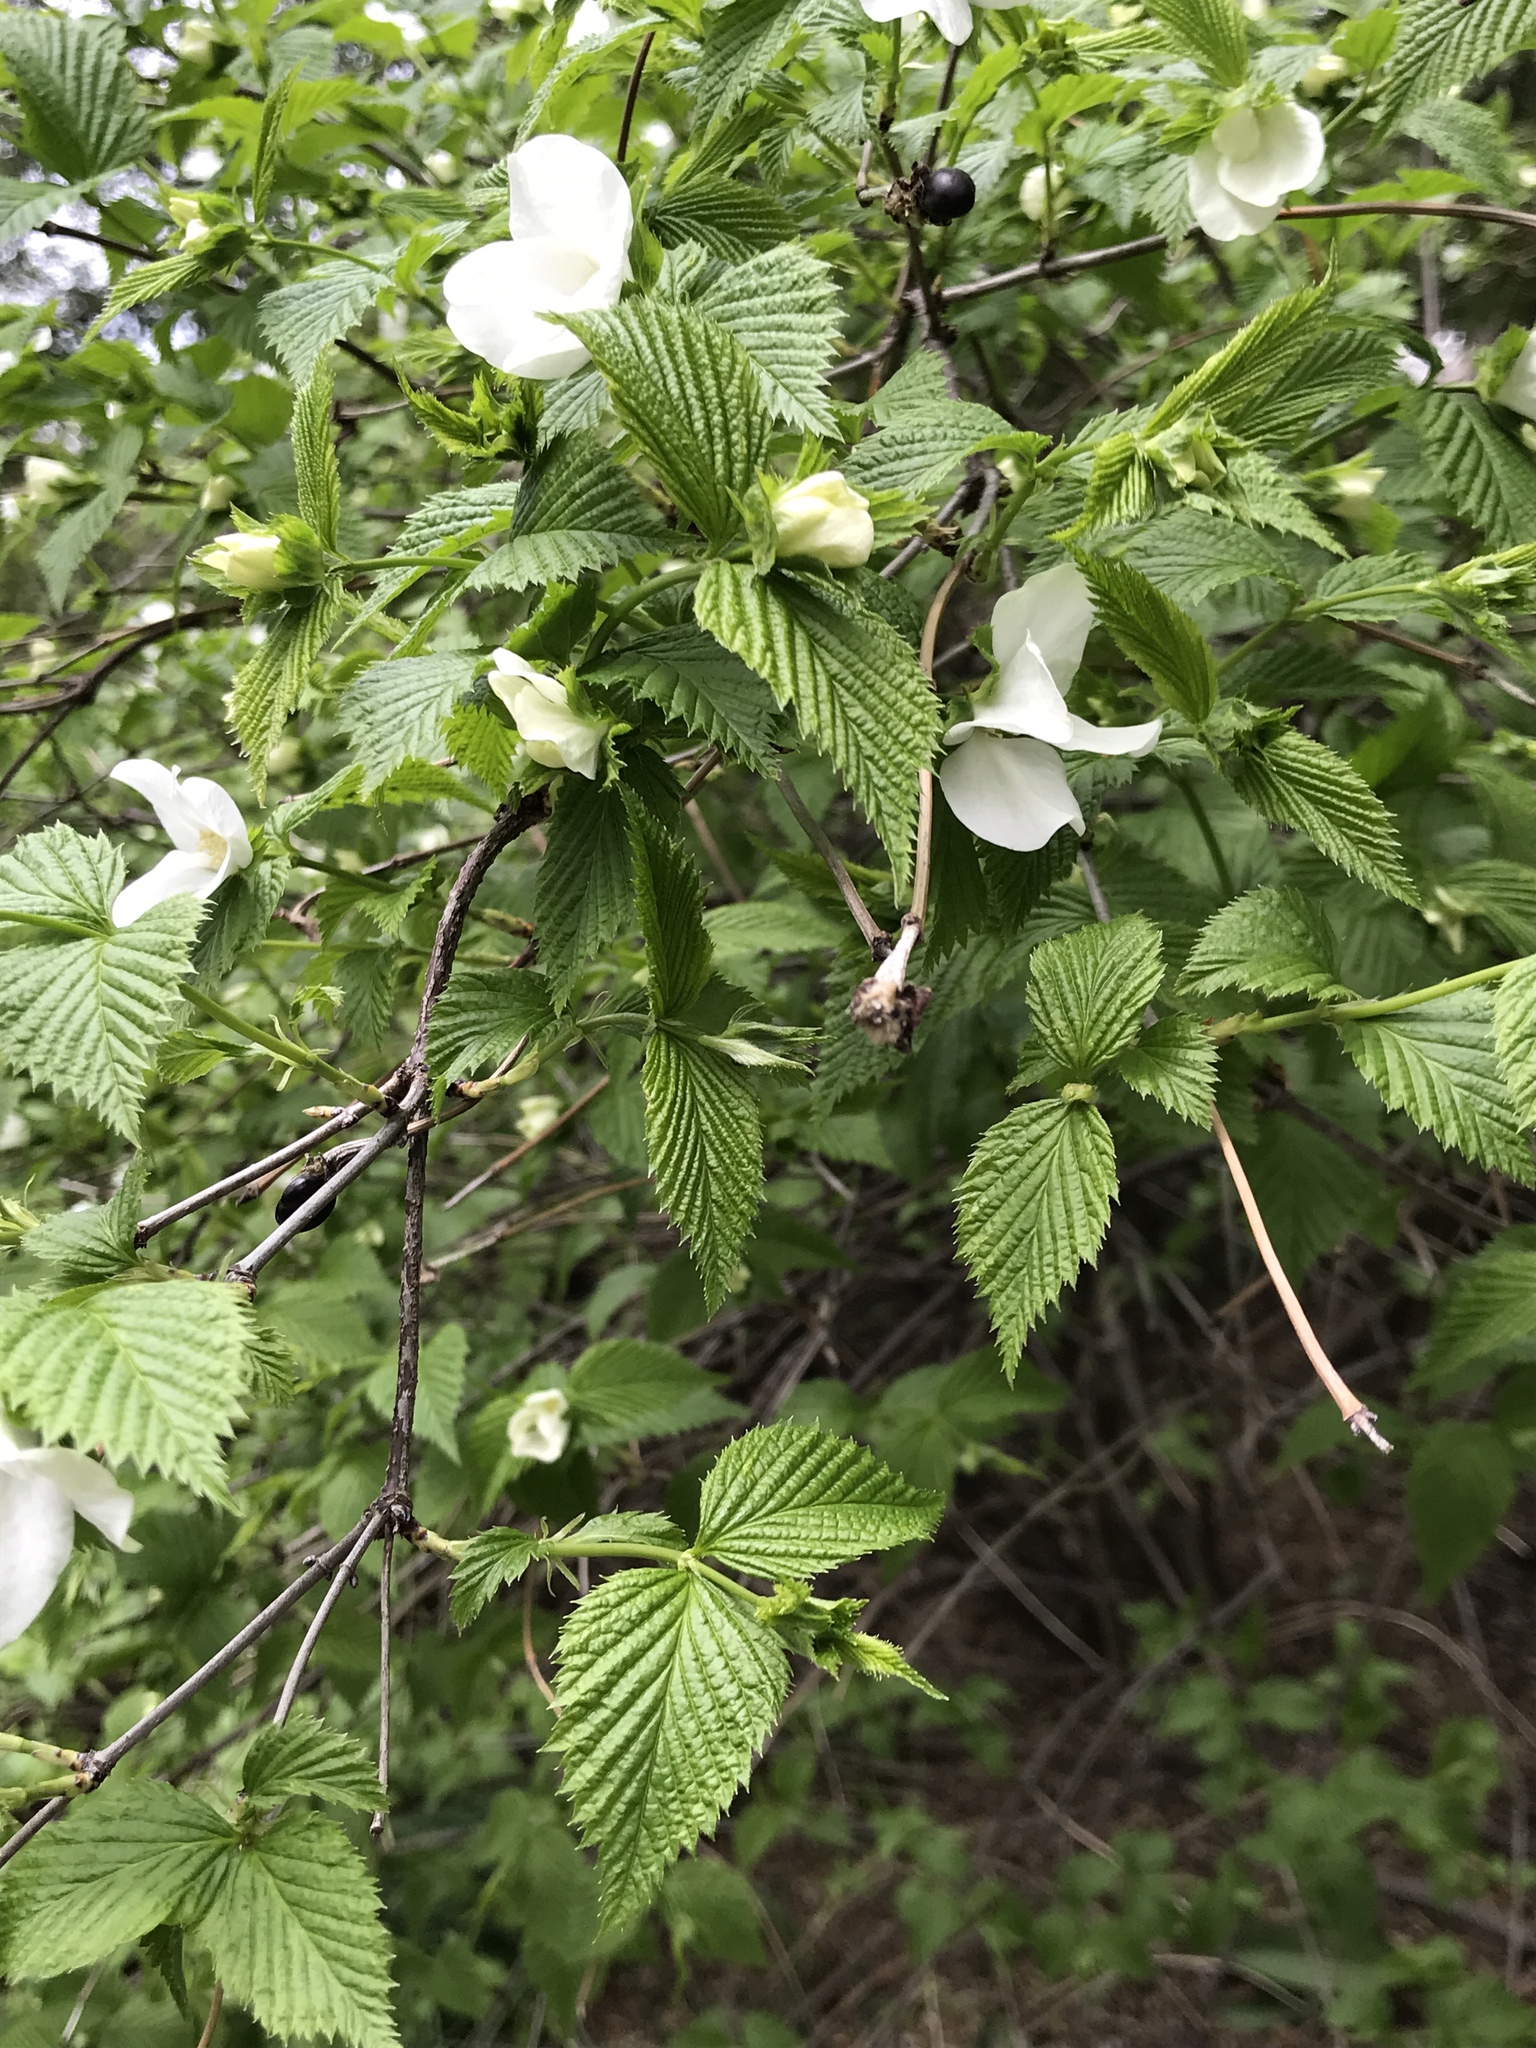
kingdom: Plantae
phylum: Tracheophyta
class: Magnoliopsida
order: Rosales
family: Rosaceae
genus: Rhodotypos
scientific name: Rhodotypos scandens
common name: Jetbead
